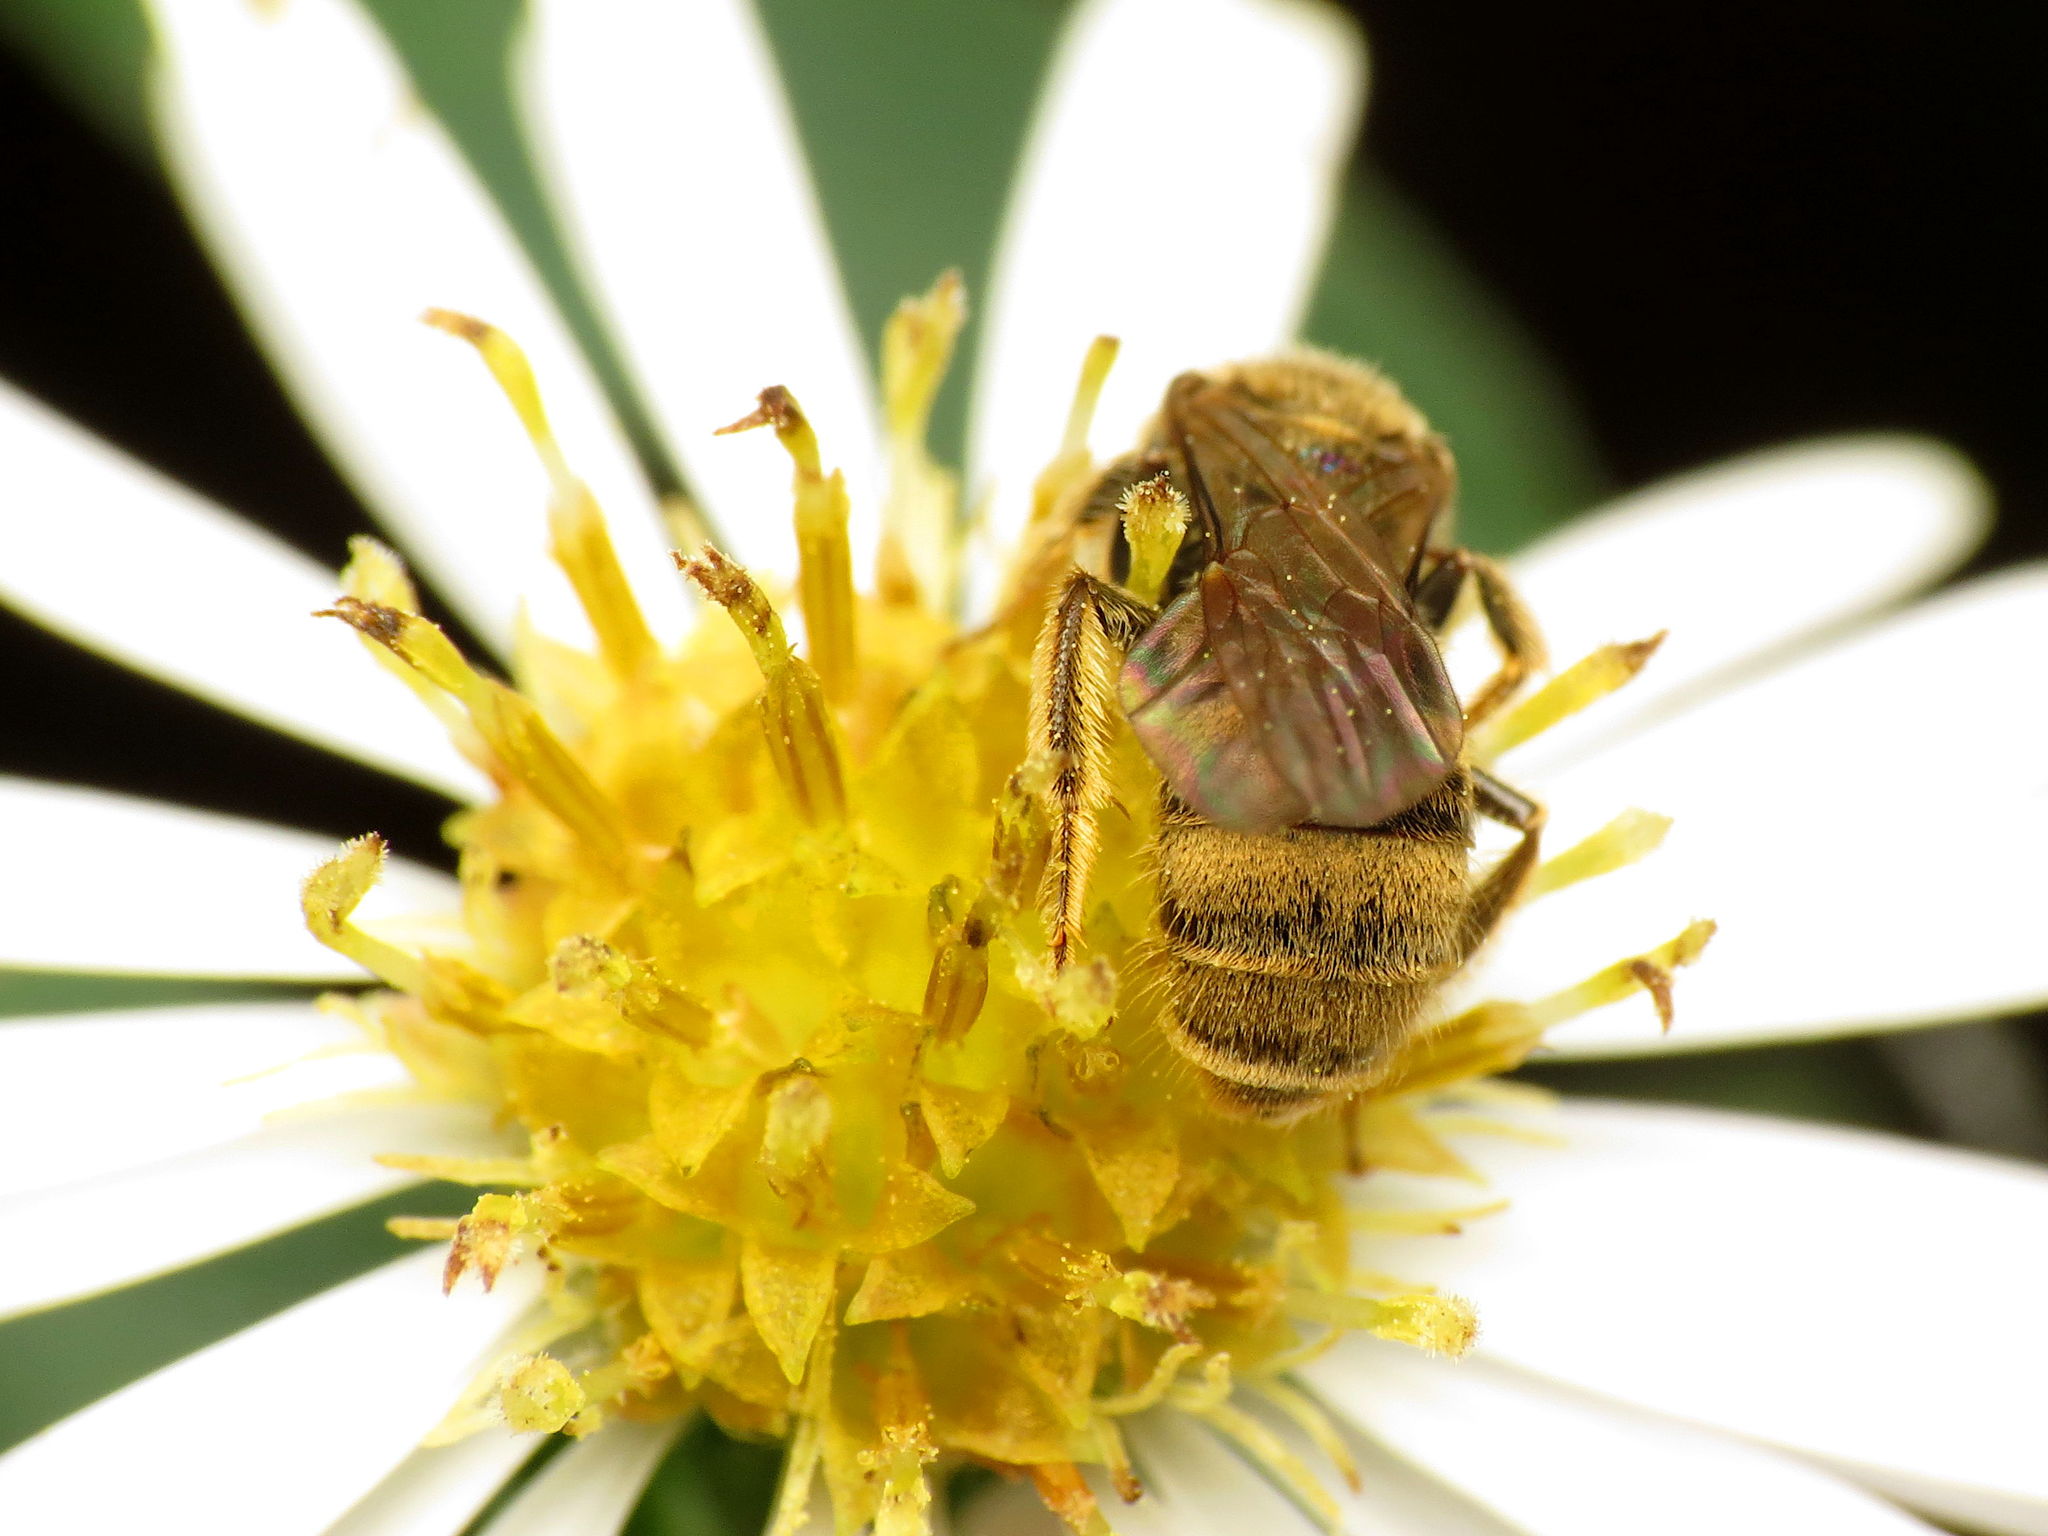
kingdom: Animalia
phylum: Arthropoda
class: Insecta
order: Hymenoptera
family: Halictidae
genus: Lasioglossum
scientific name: Lasioglossum cressonii
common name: Cresson's dialictus
